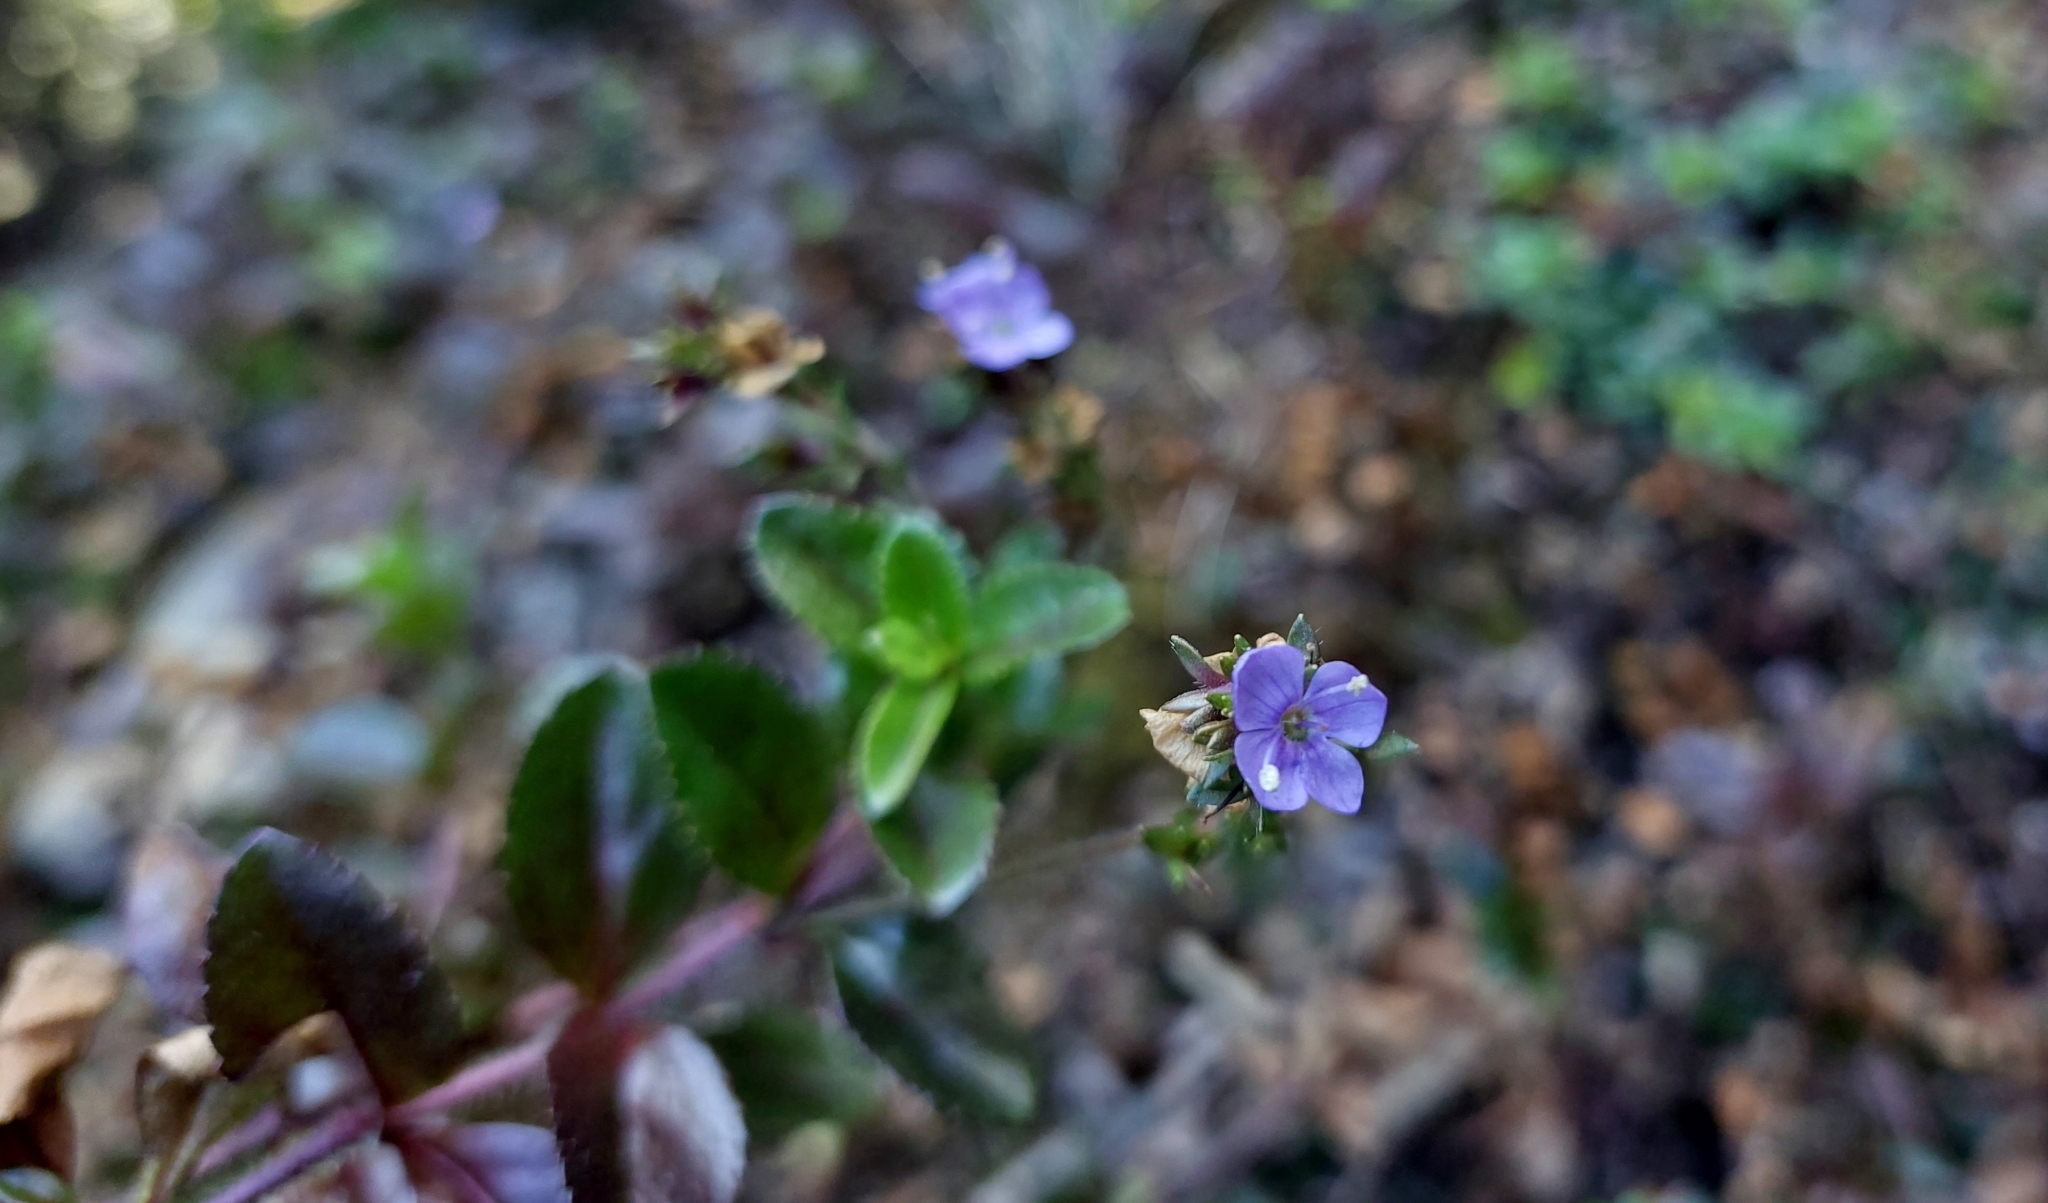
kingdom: Plantae
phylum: Tracheophyta
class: Magnoliopsida
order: Lamiales
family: Plantaginaceae
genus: Veronica
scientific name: Veronica morrisonicola
